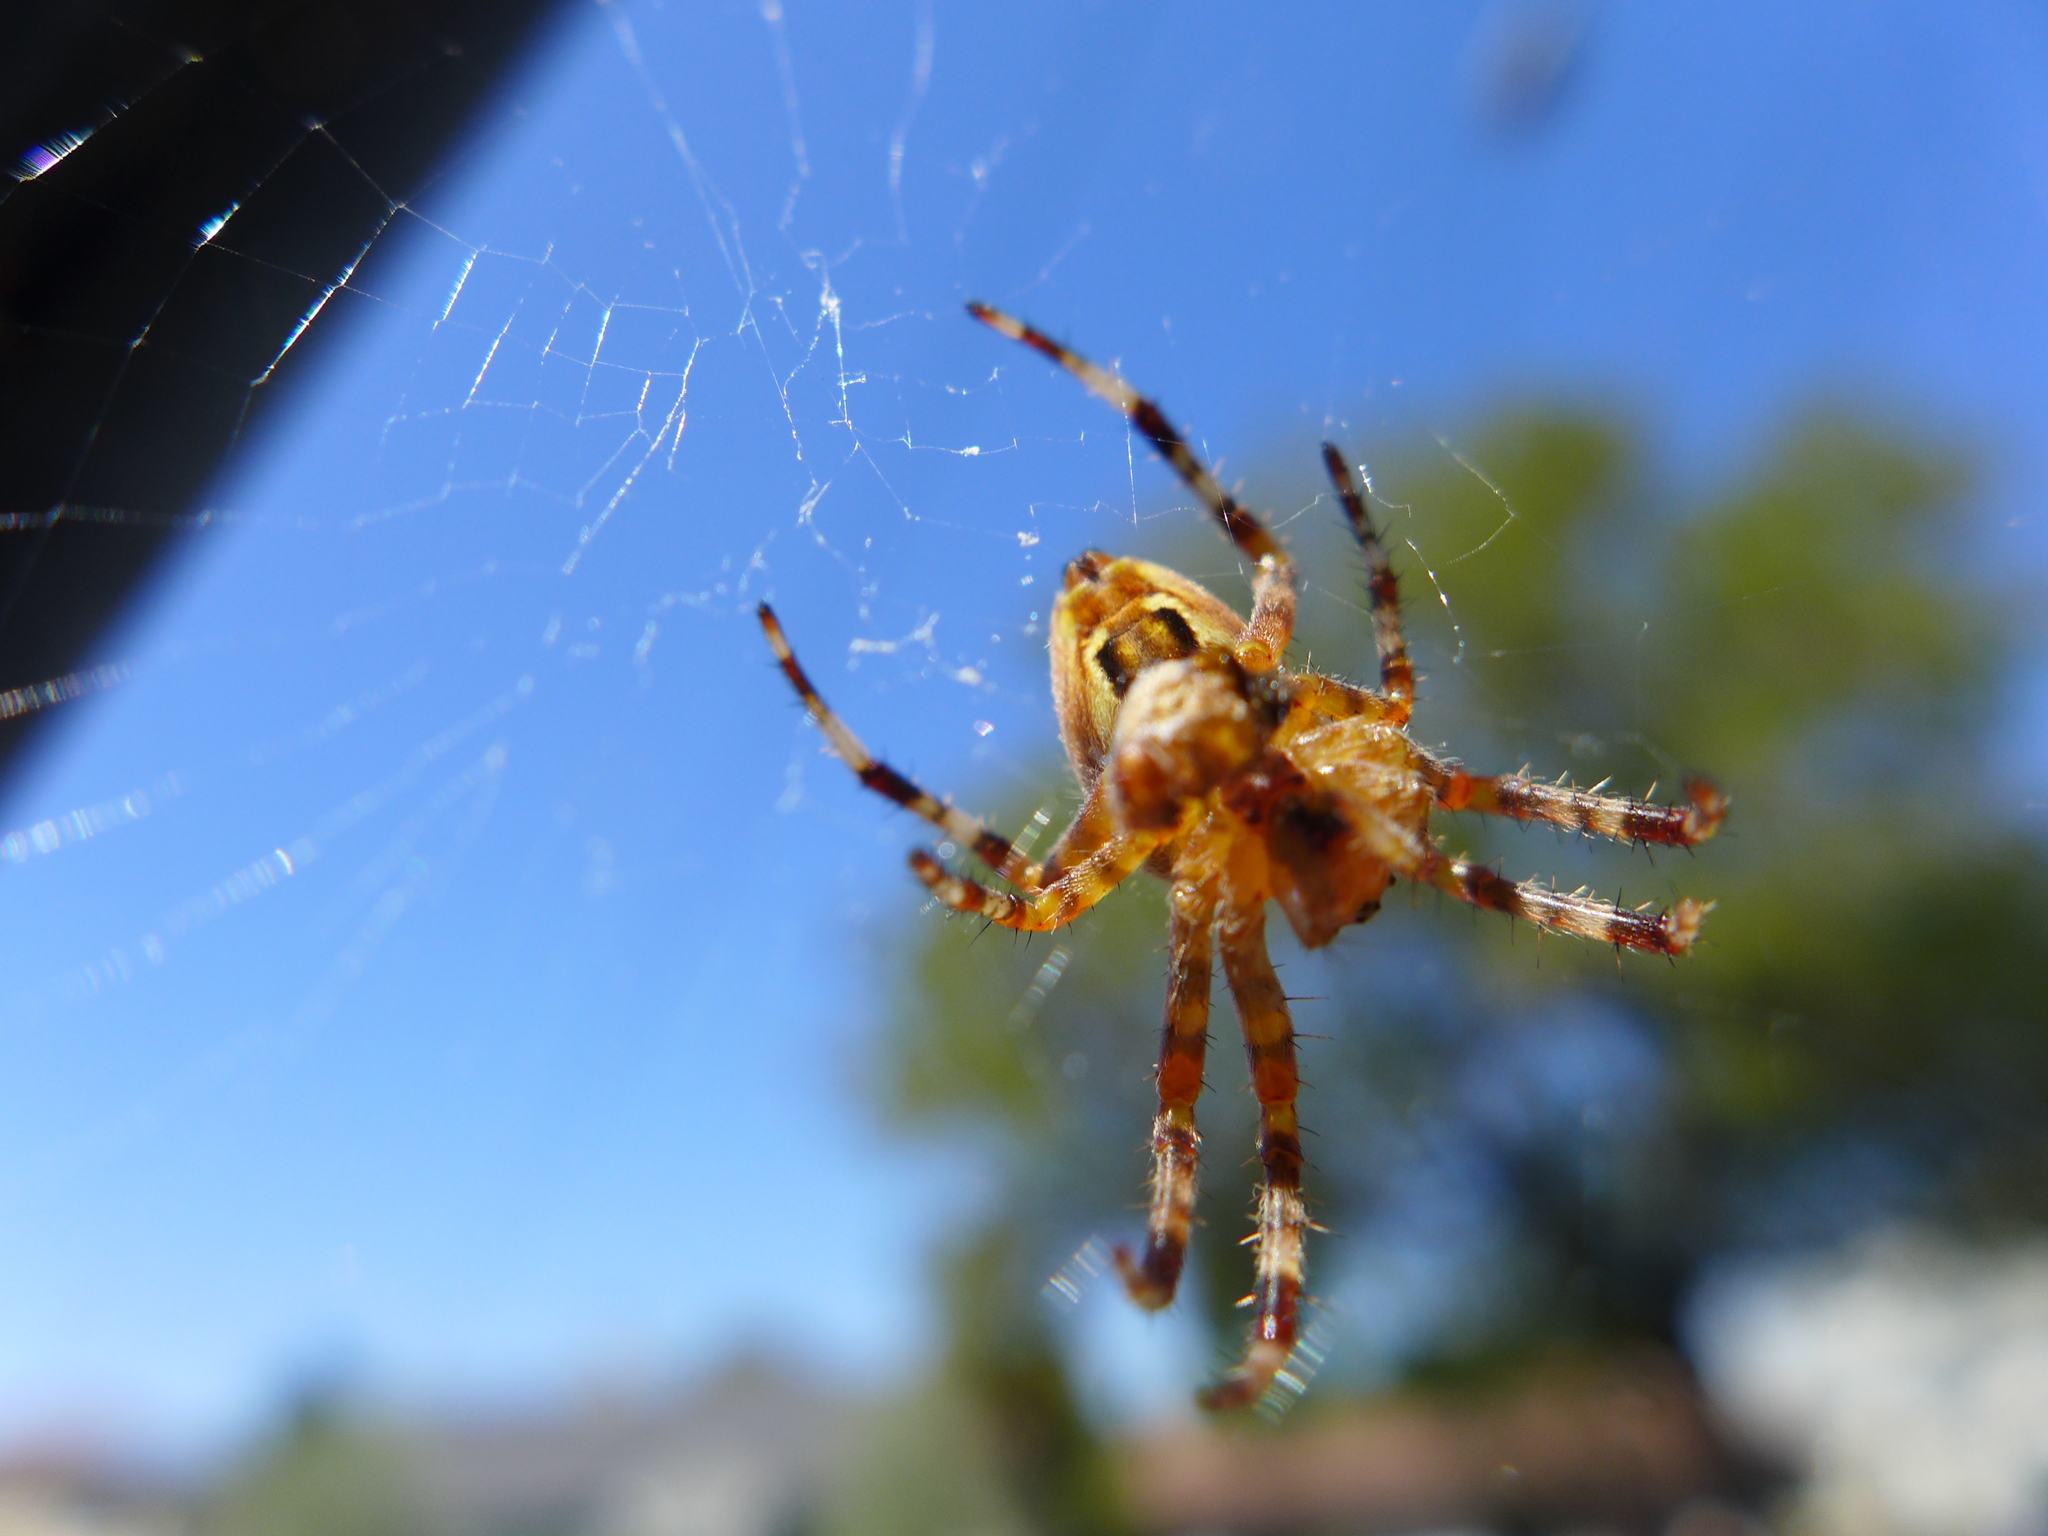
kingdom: Animalia
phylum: Arthropoda
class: Arachnida
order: Araneae
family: Araneidae
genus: Araneus
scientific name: Araneus diadematus
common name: Cross orbweaver
